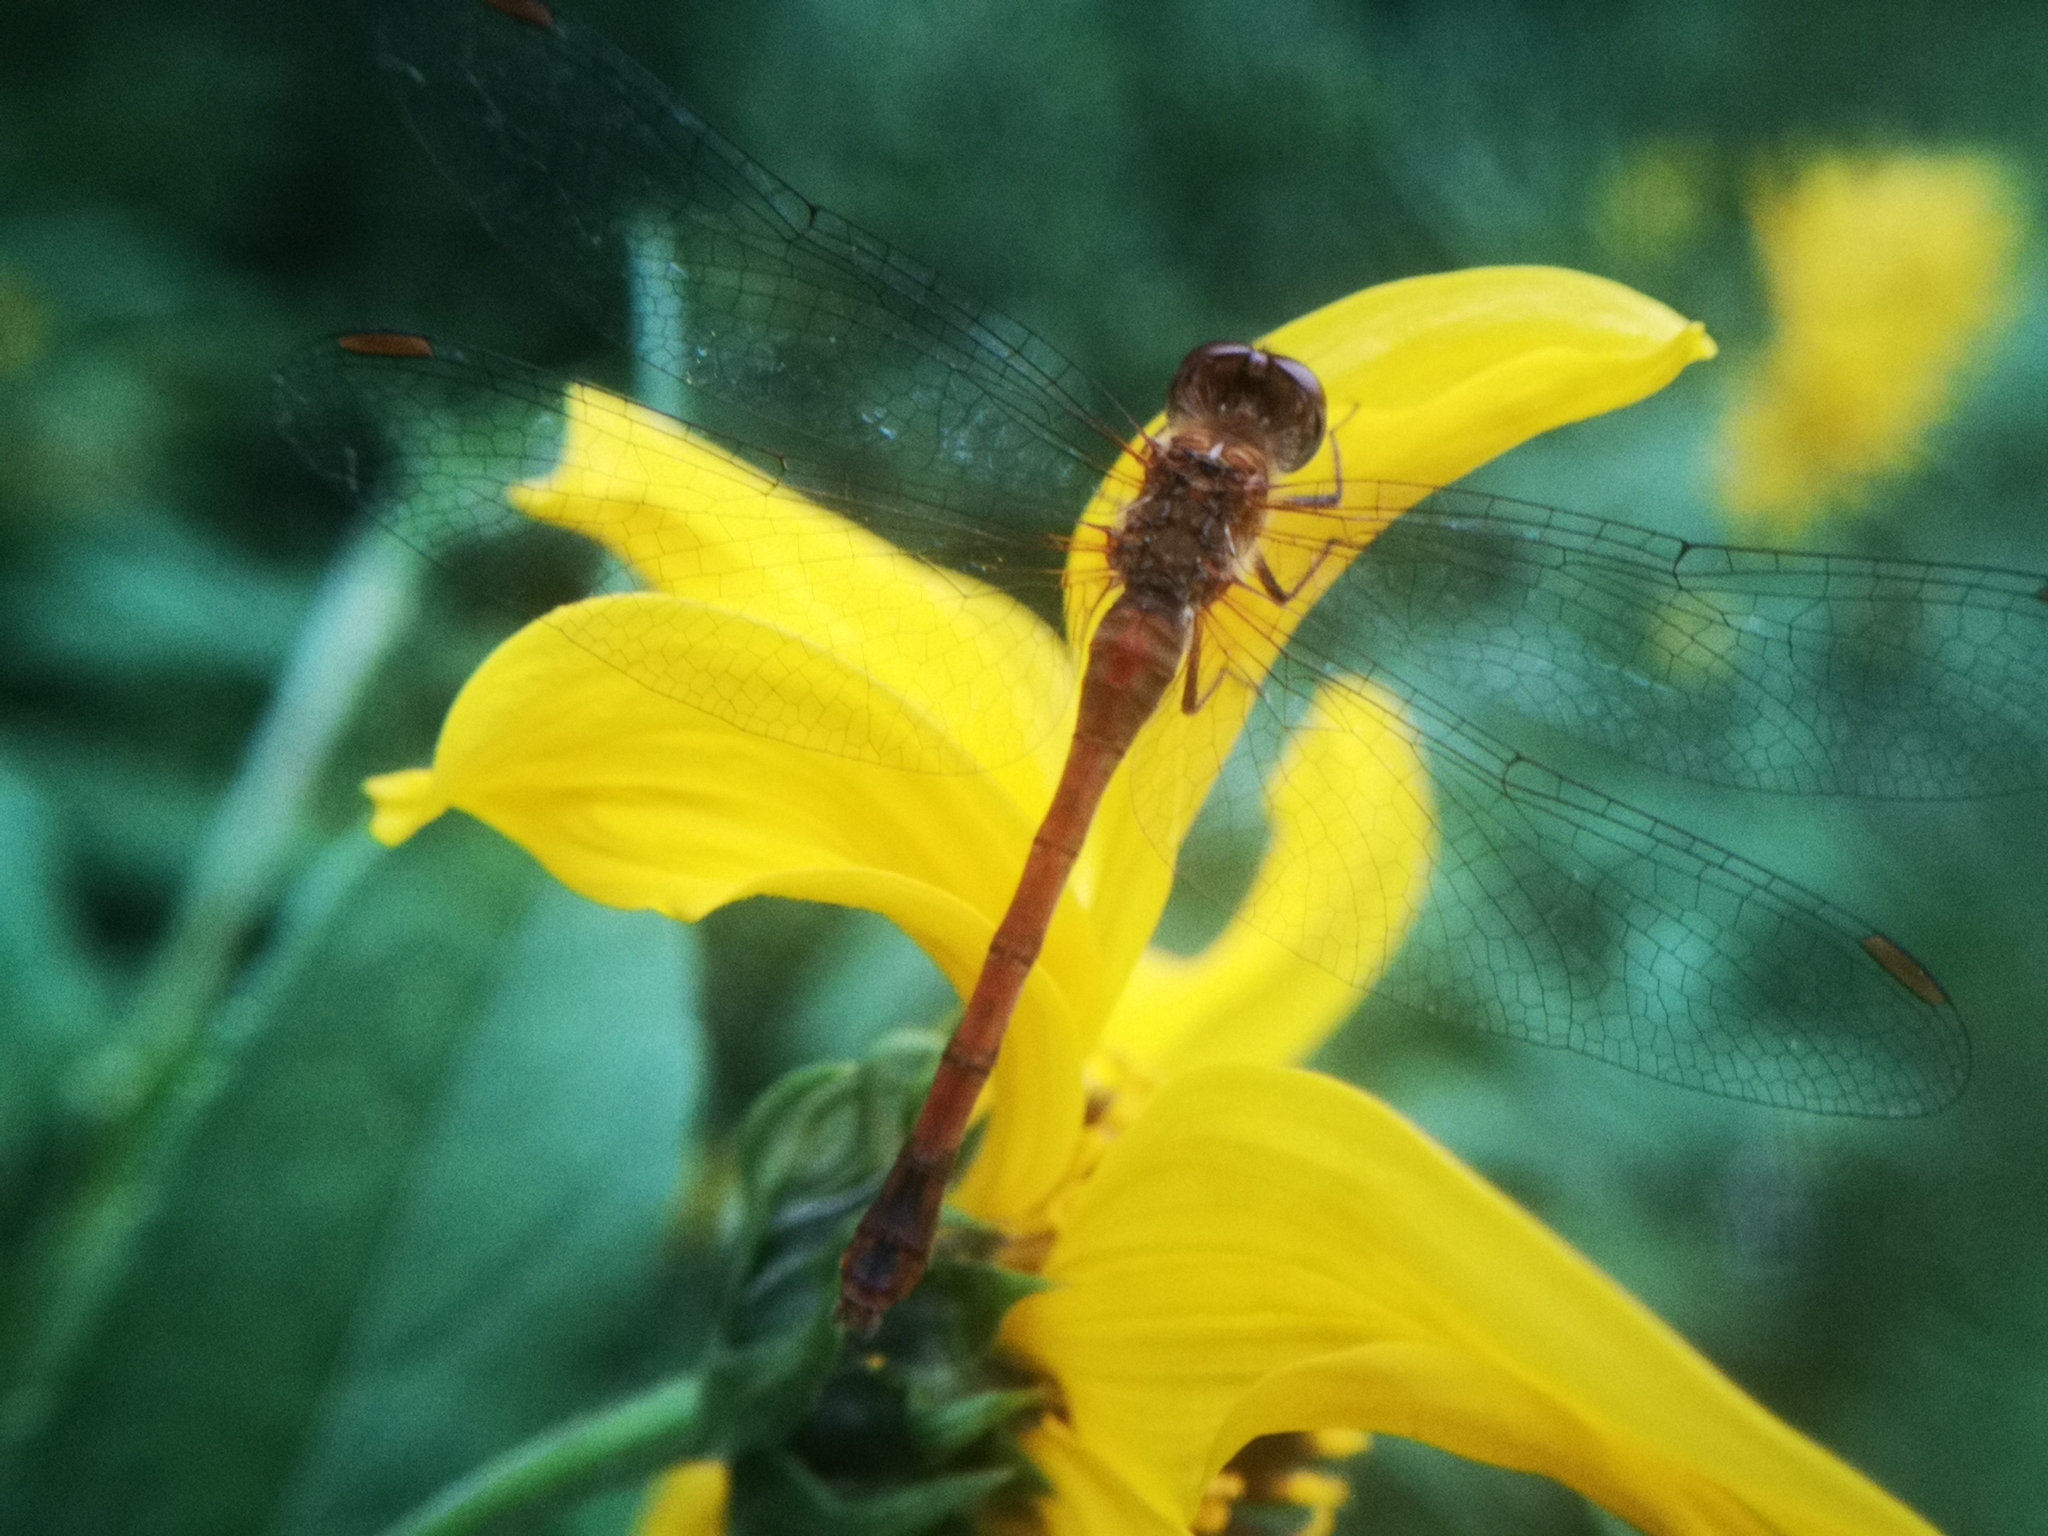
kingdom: Animalia
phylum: Arthropoda
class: Insecta
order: Odonata
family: Libellulidae
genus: Sympetrum
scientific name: Sympetrum vicinum
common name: Autumn meadowhawk
